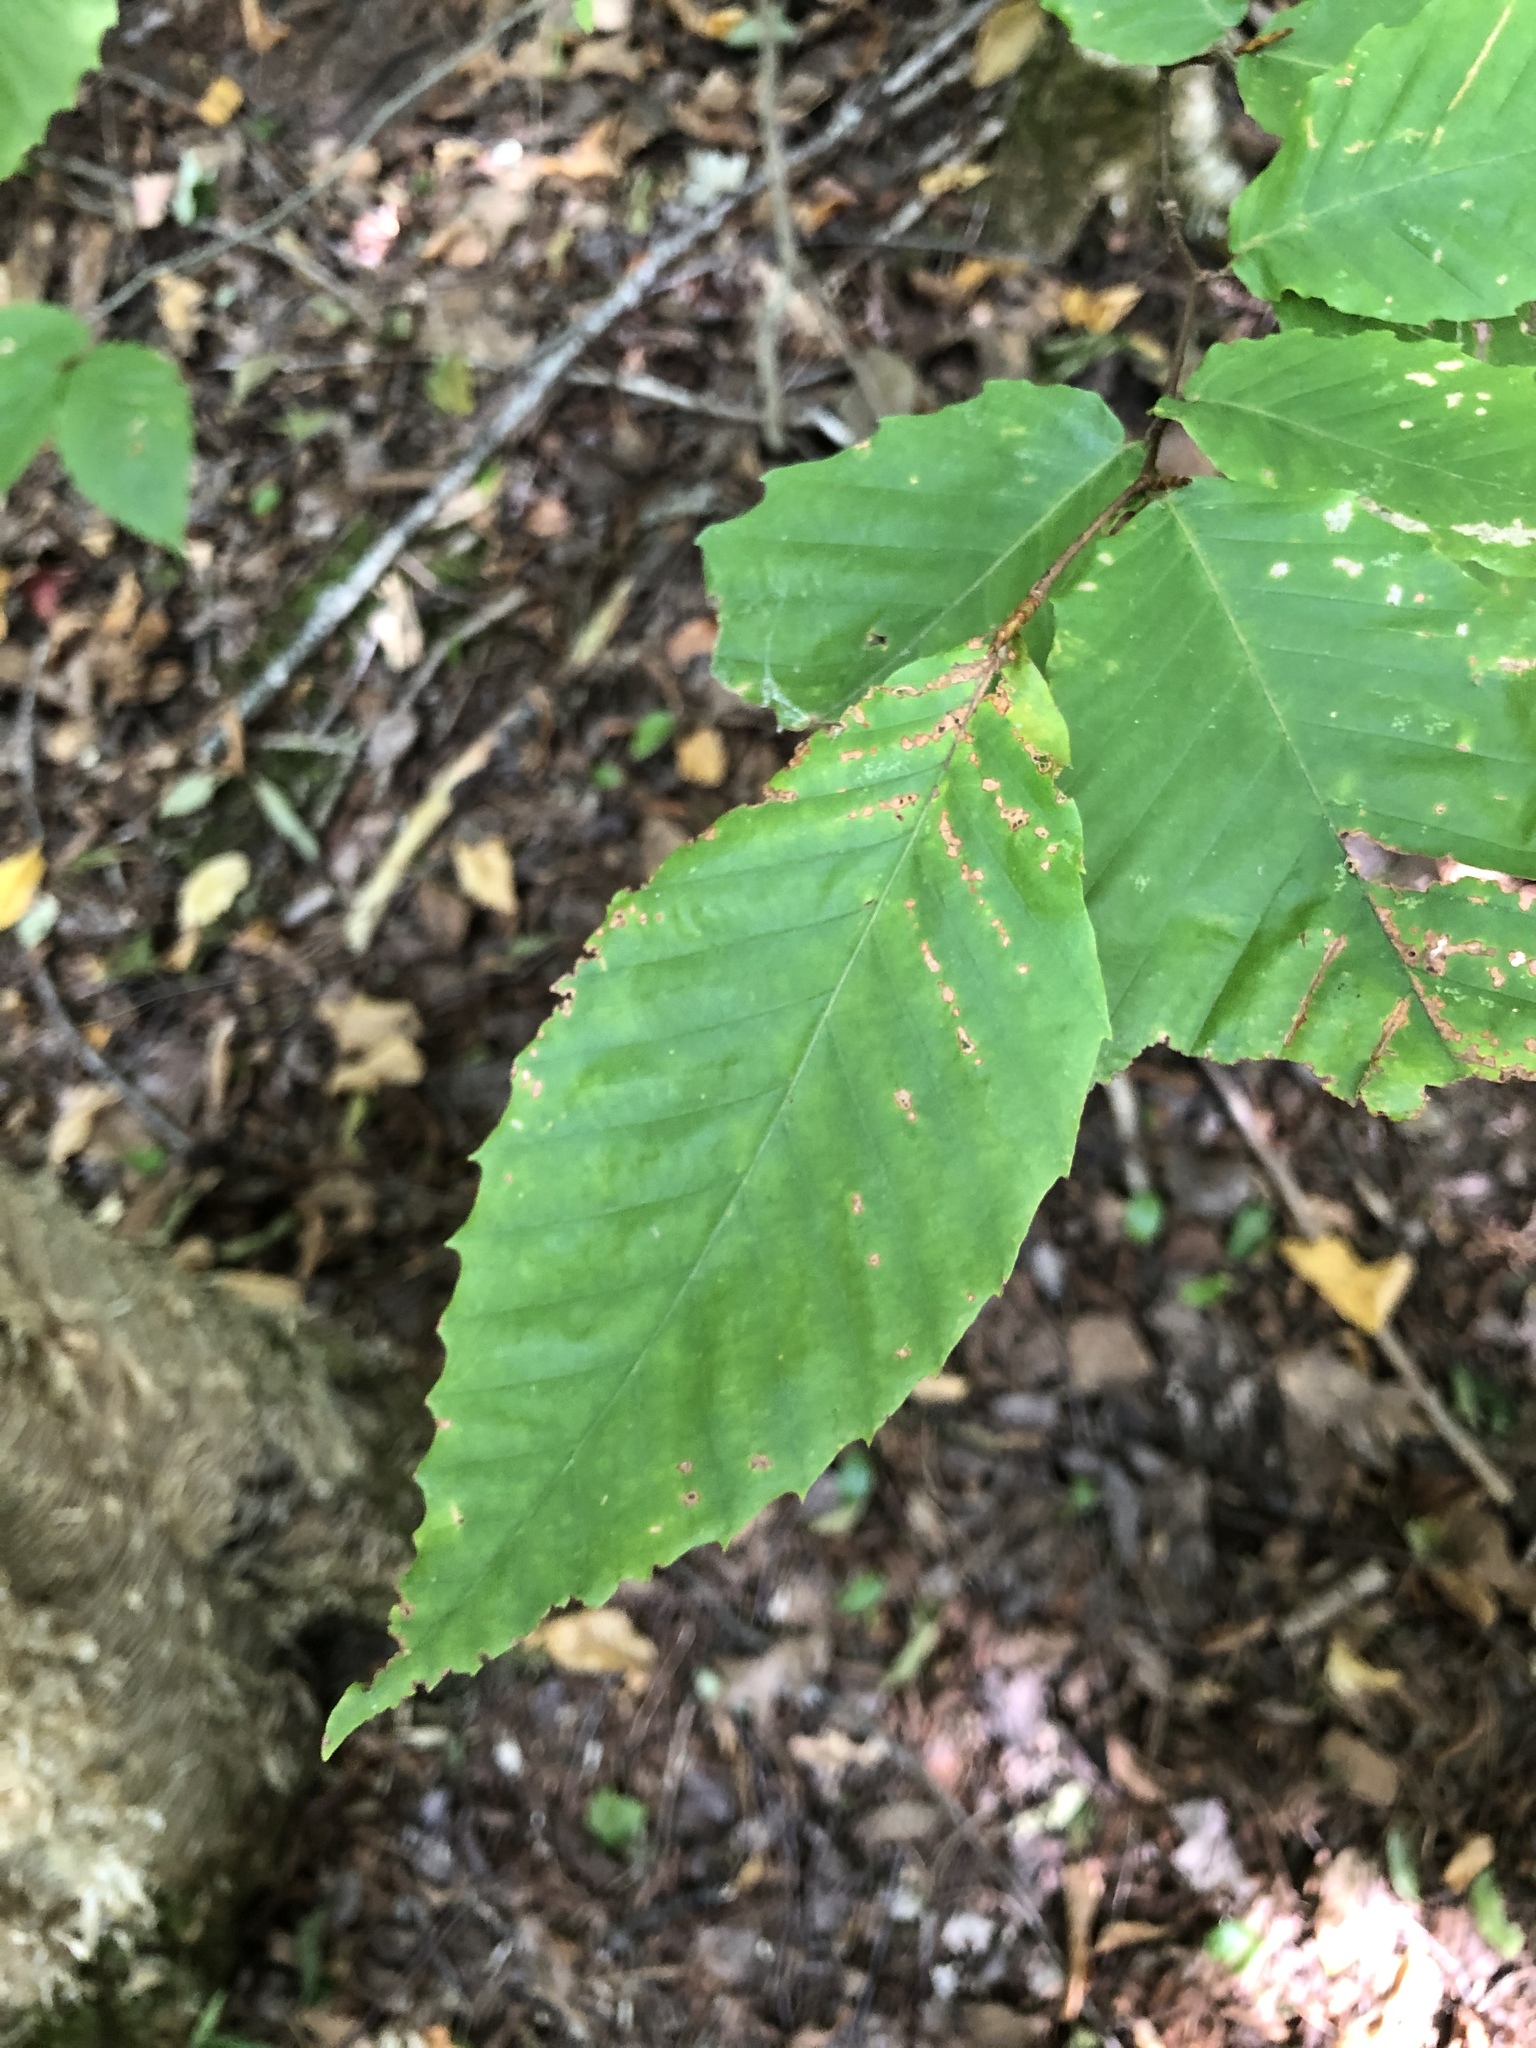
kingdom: Plantae
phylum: Tracheophyta
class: Magnoliopsida
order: Fagales
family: Fagaceae
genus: Fagus
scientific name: Fagus grandifolia
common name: American beech
